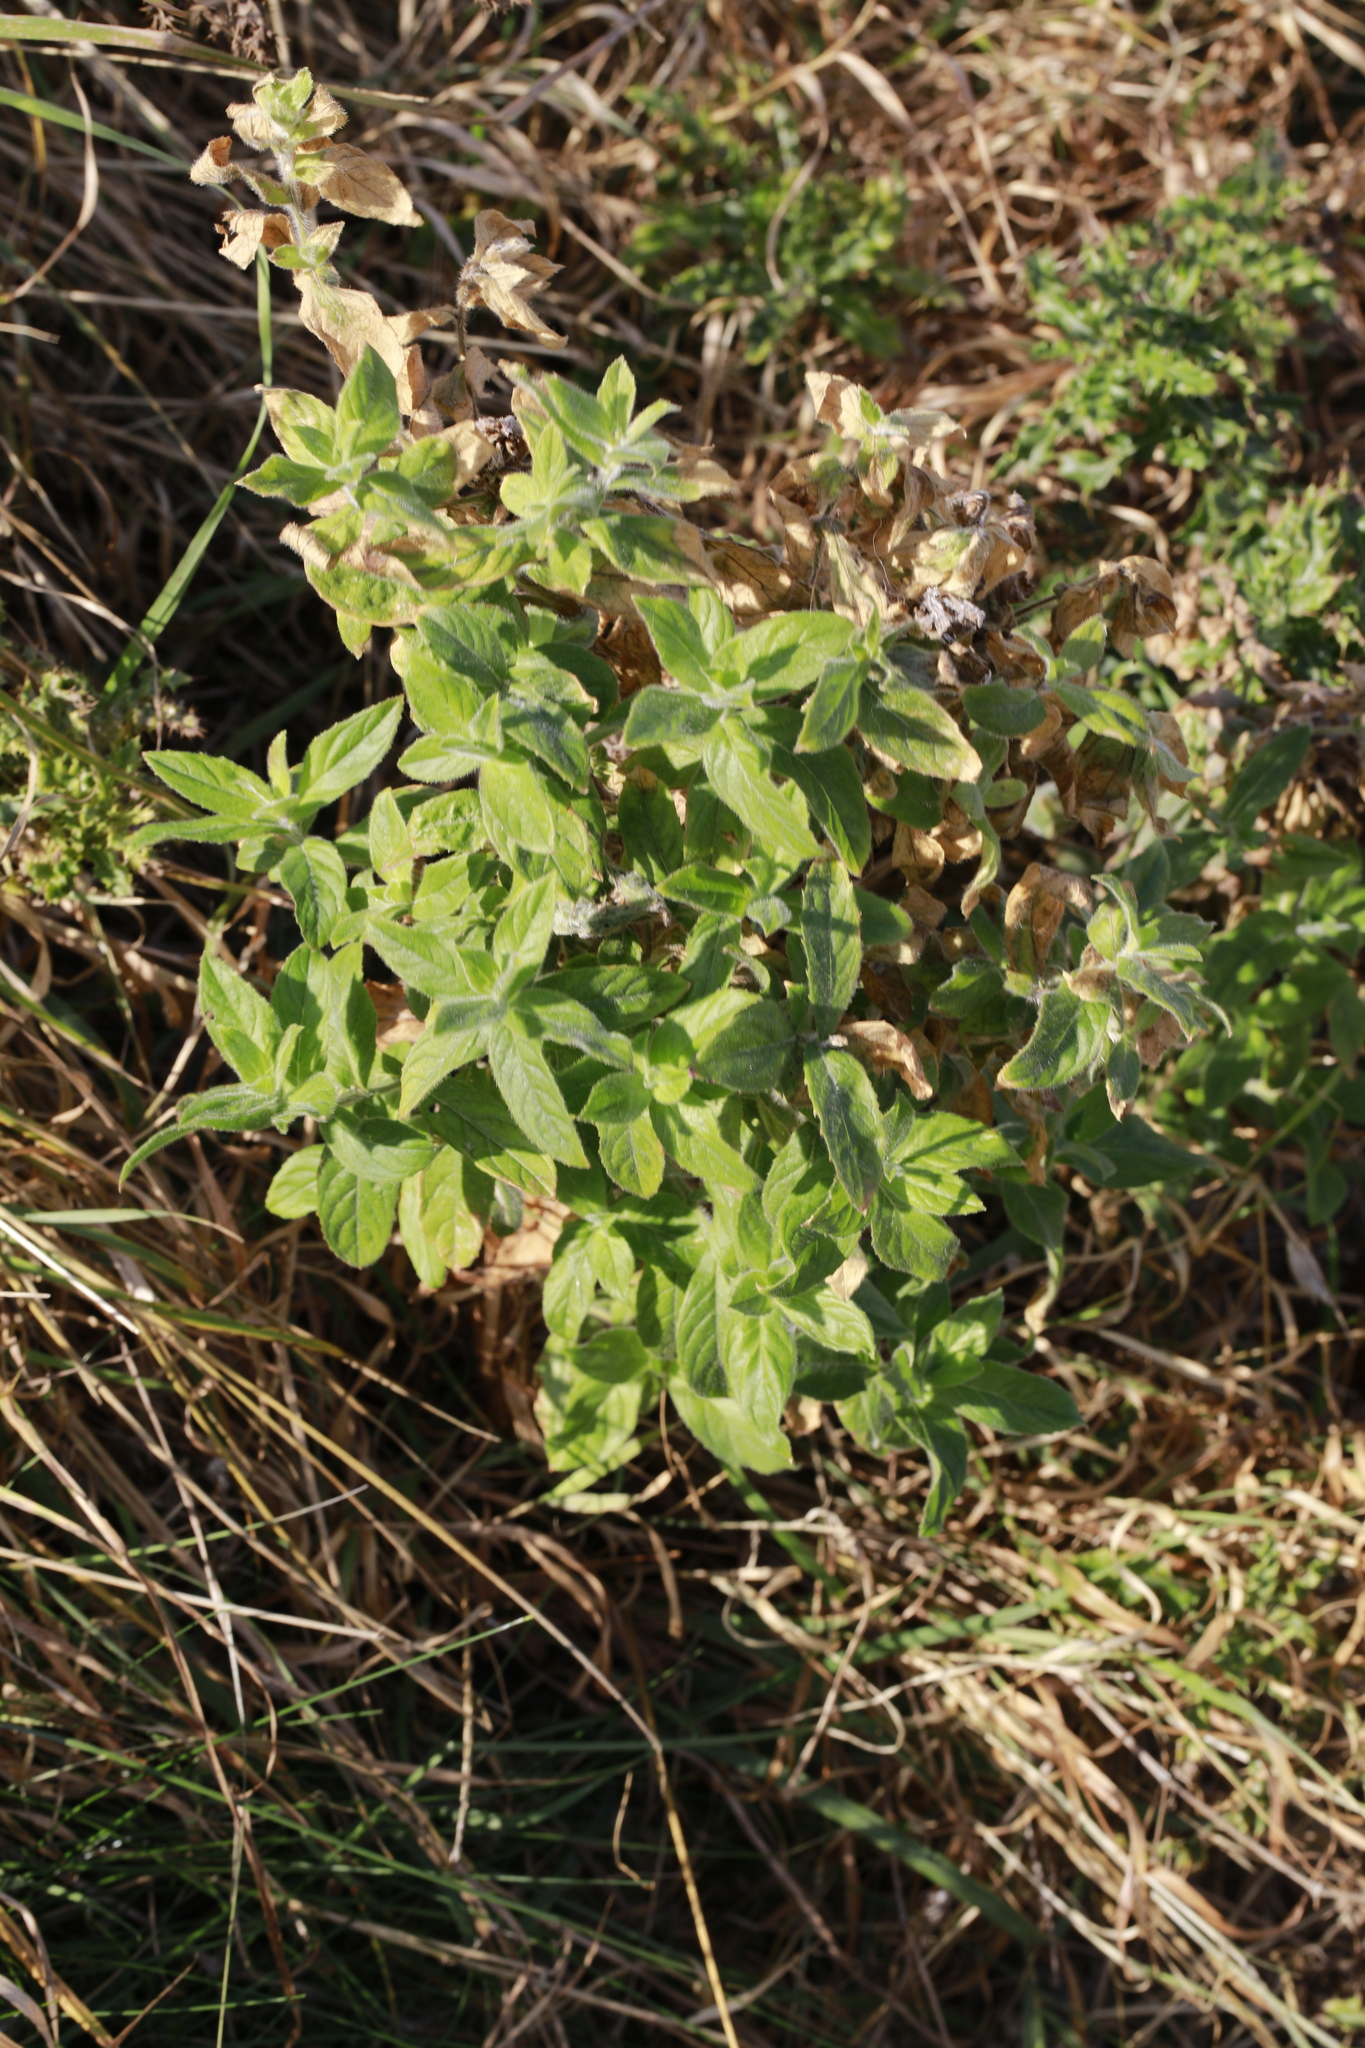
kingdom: Plantae
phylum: Tracheophyta
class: Magnoliopsida
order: Myrtales
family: Onagraceae
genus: Epilobium
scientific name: Epilobium hirsutum
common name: Great willowherb
